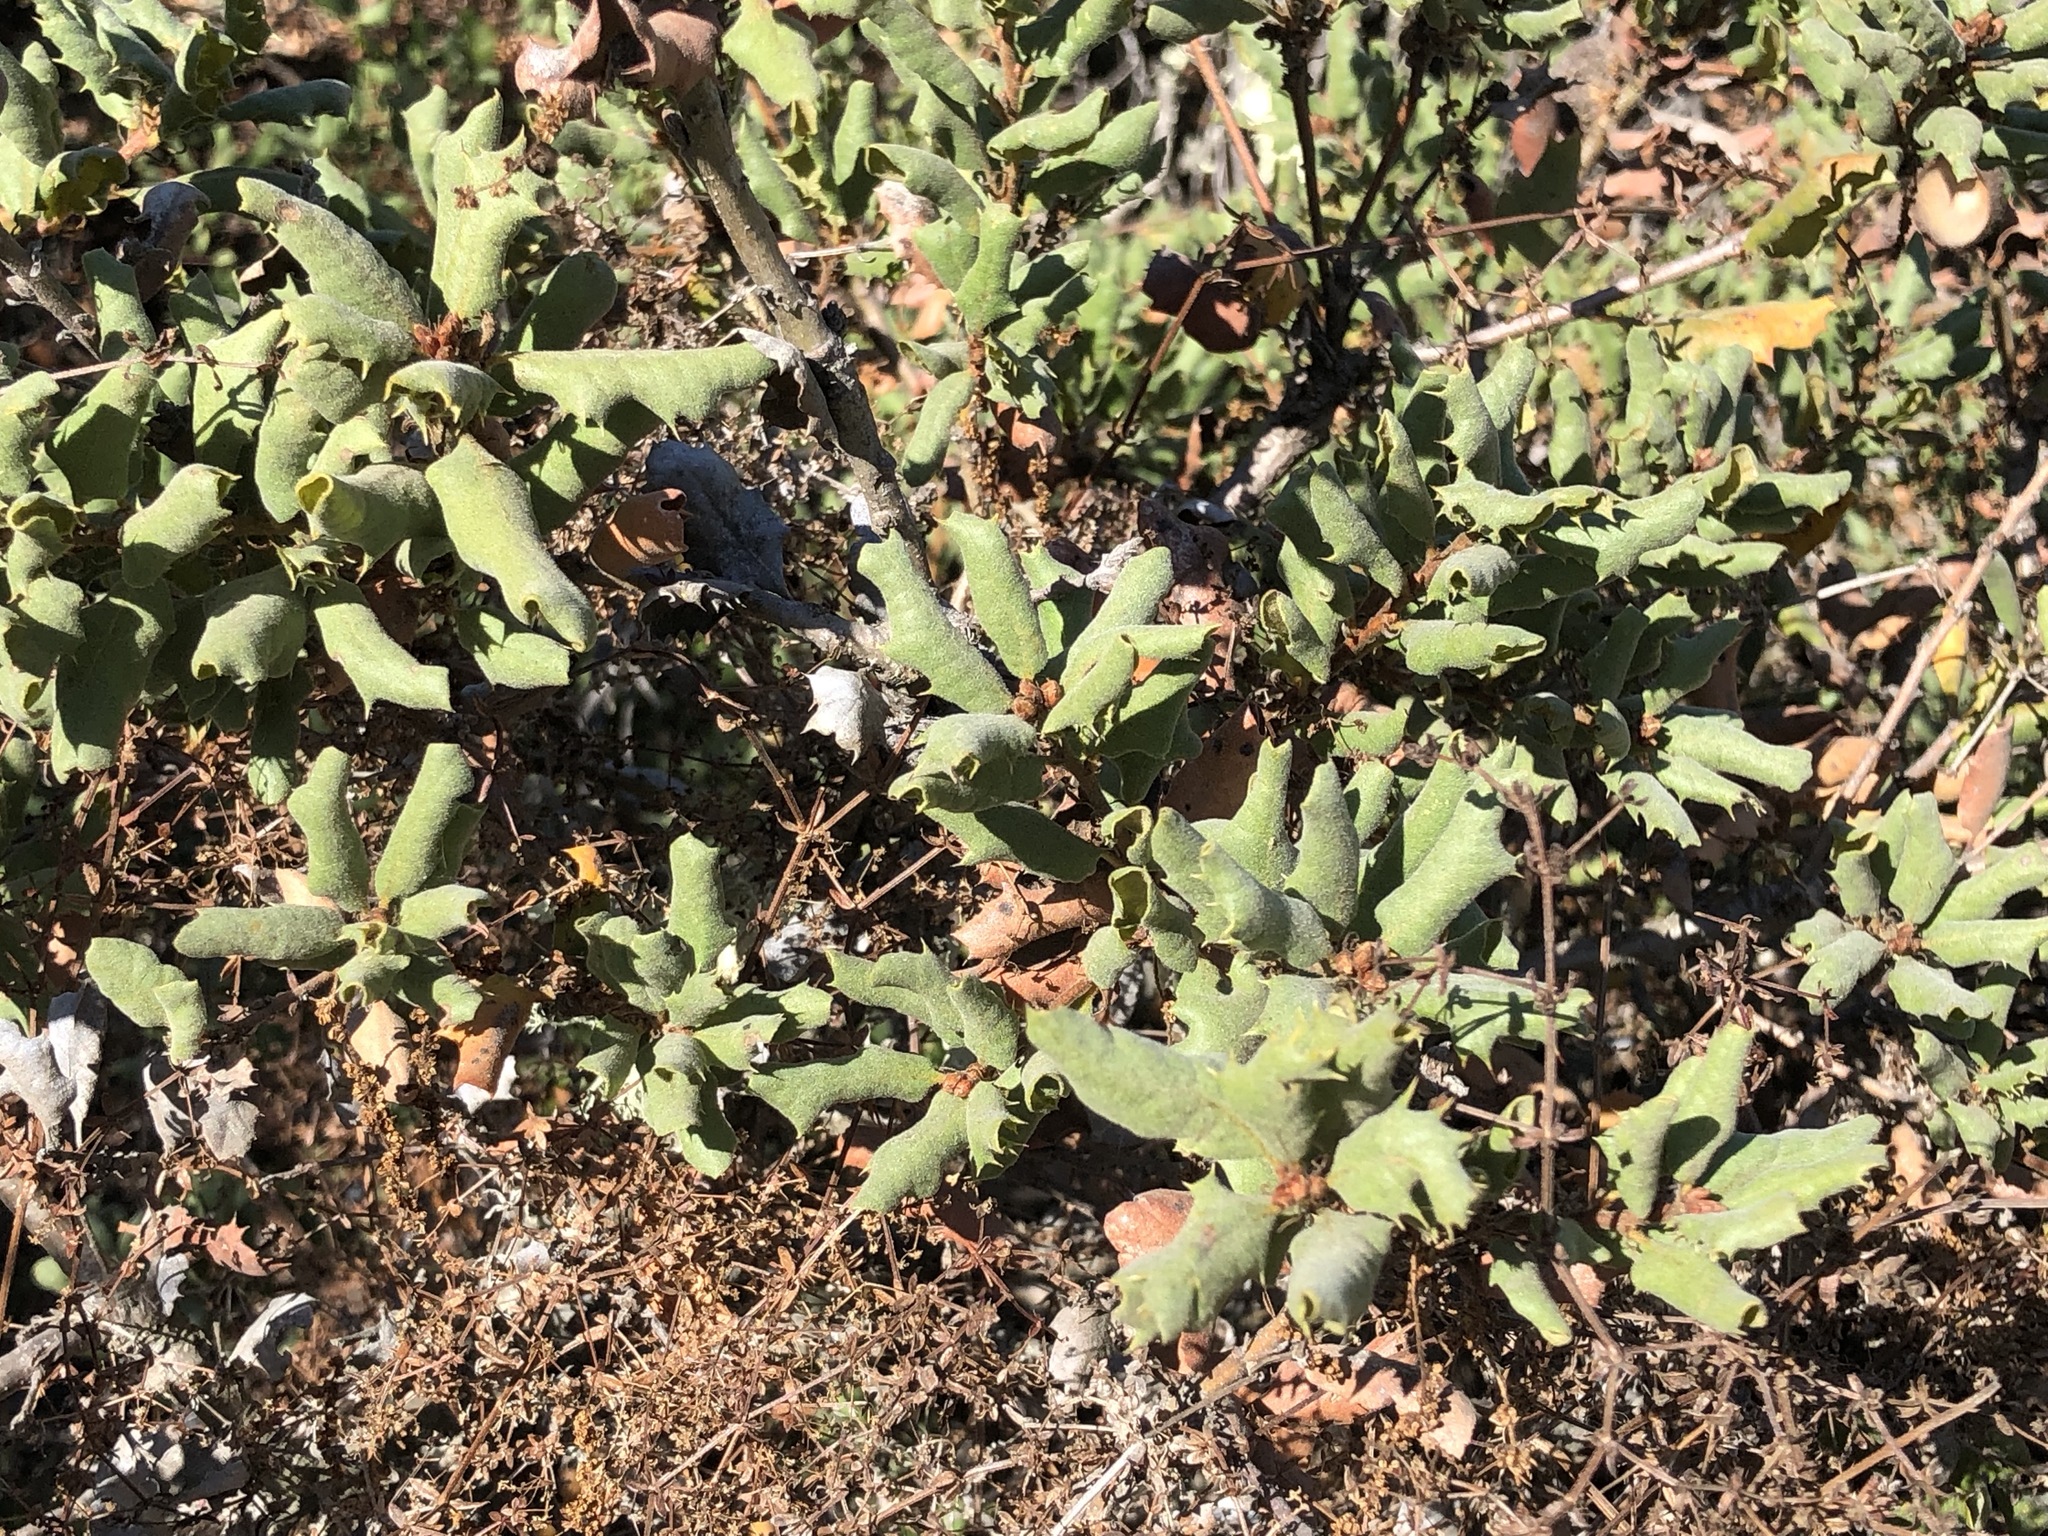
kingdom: Plantae
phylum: Tracheophyta
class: Magnoliopsida
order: Fagales
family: Fagaceae
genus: Quercus
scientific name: Quercus durata
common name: Leather oak
